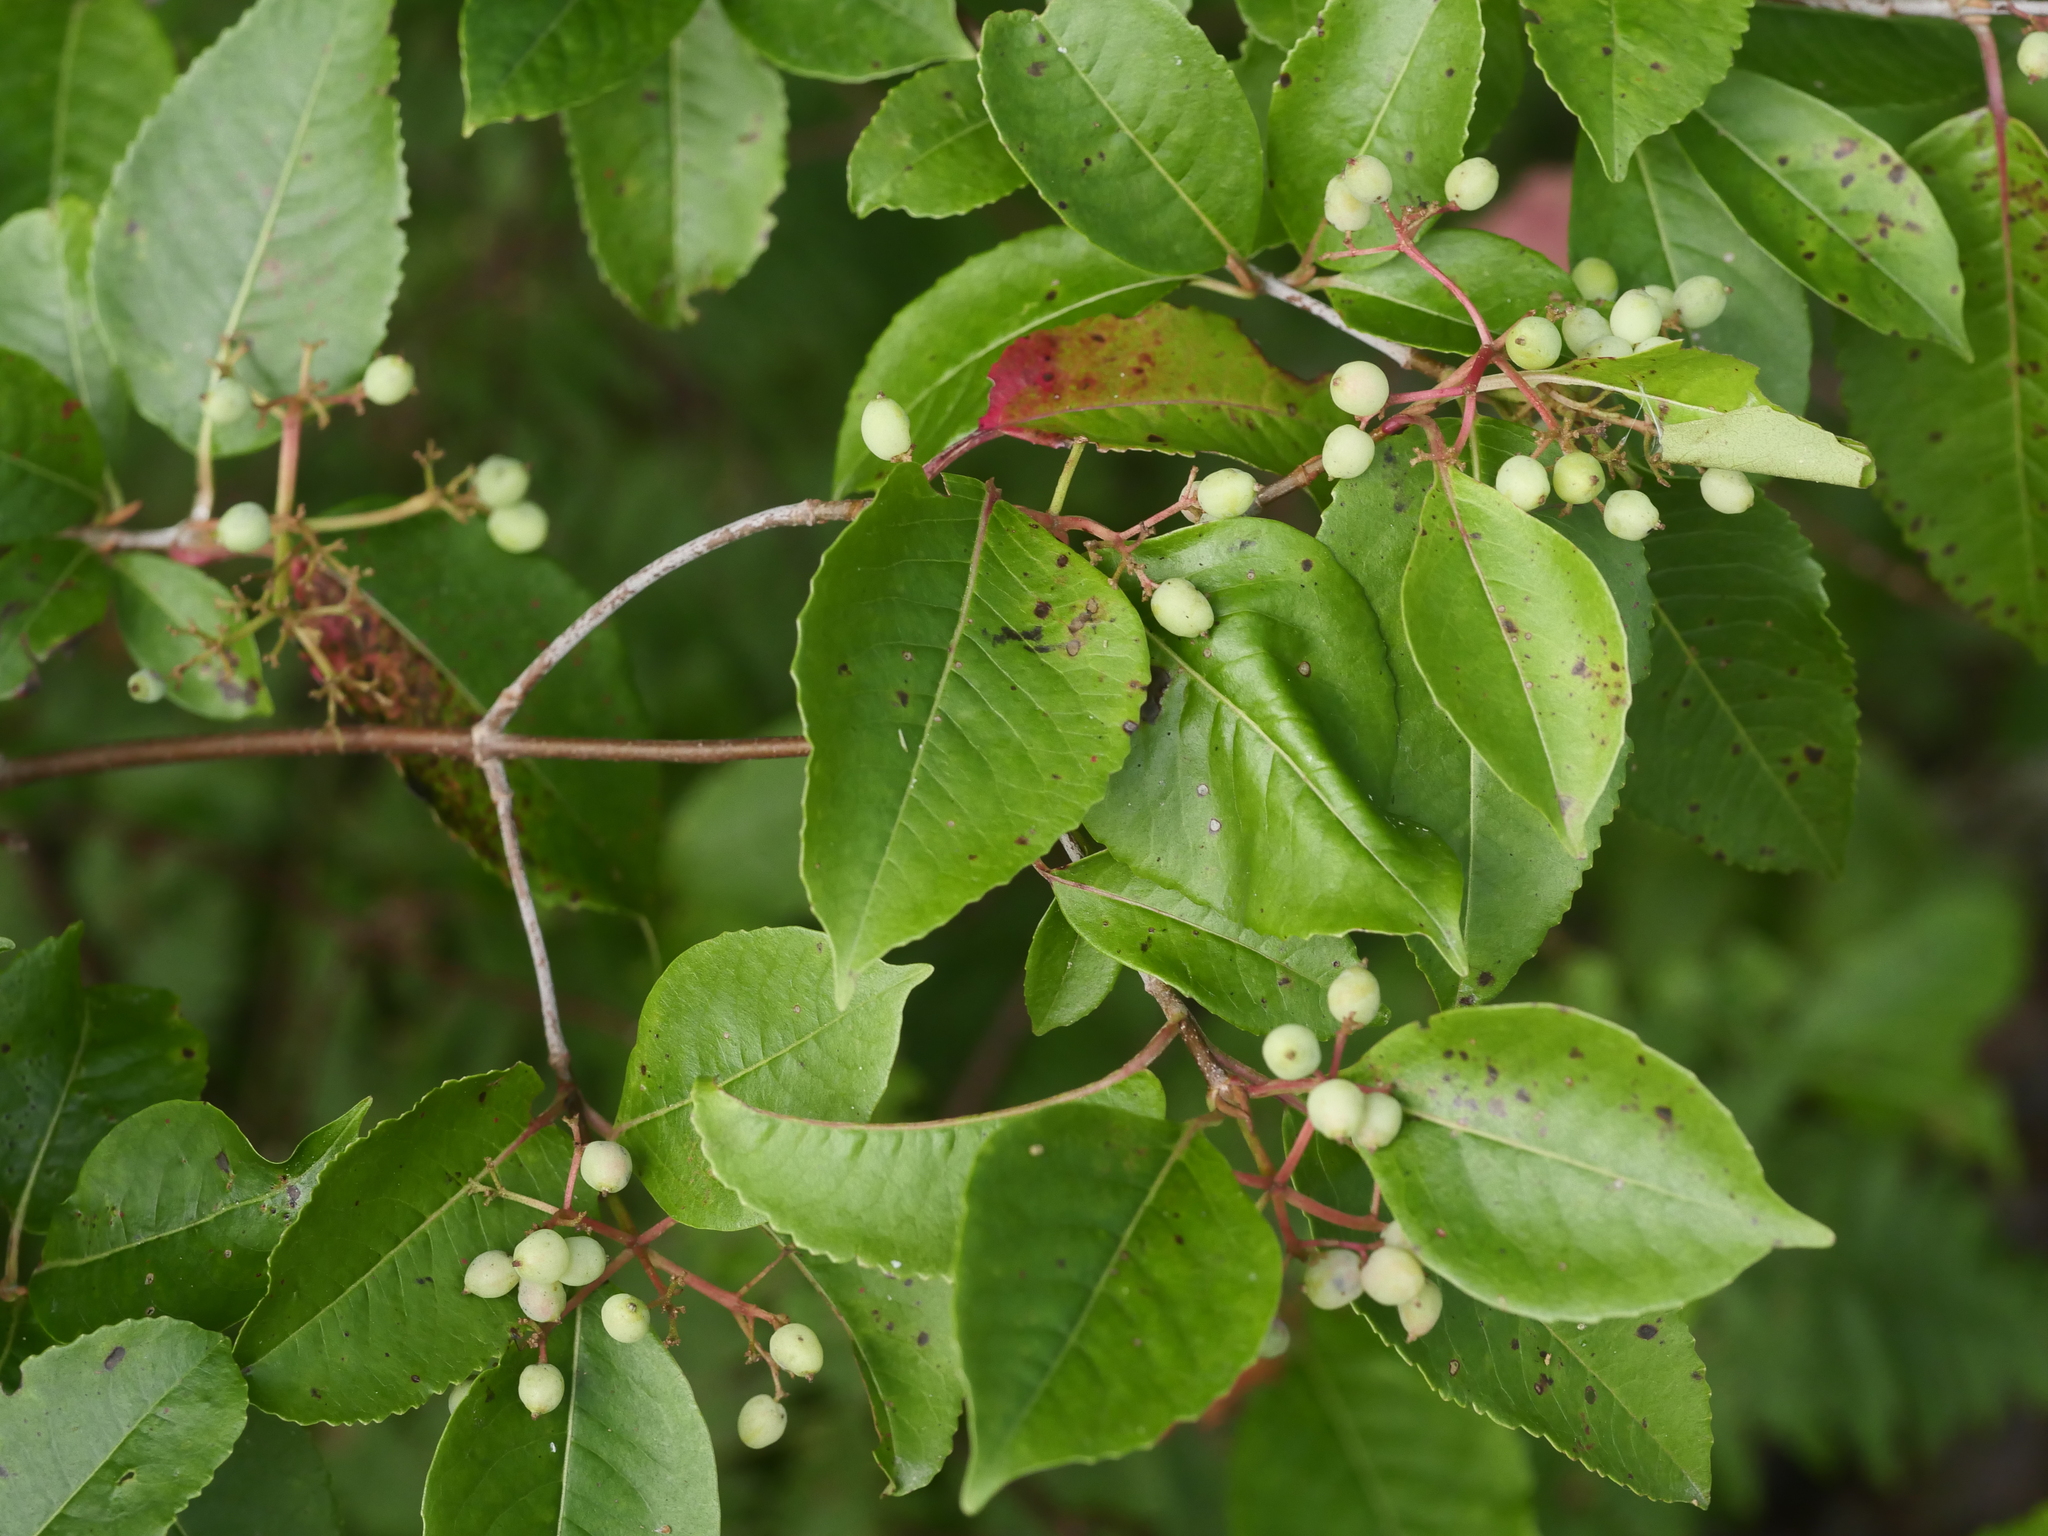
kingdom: Plantae
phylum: Tracheophyta
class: Magnoliopsida
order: Dipsacales
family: Viburnaceae
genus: Viburnum
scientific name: Viburnum cassinoides
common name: Swamp haw
